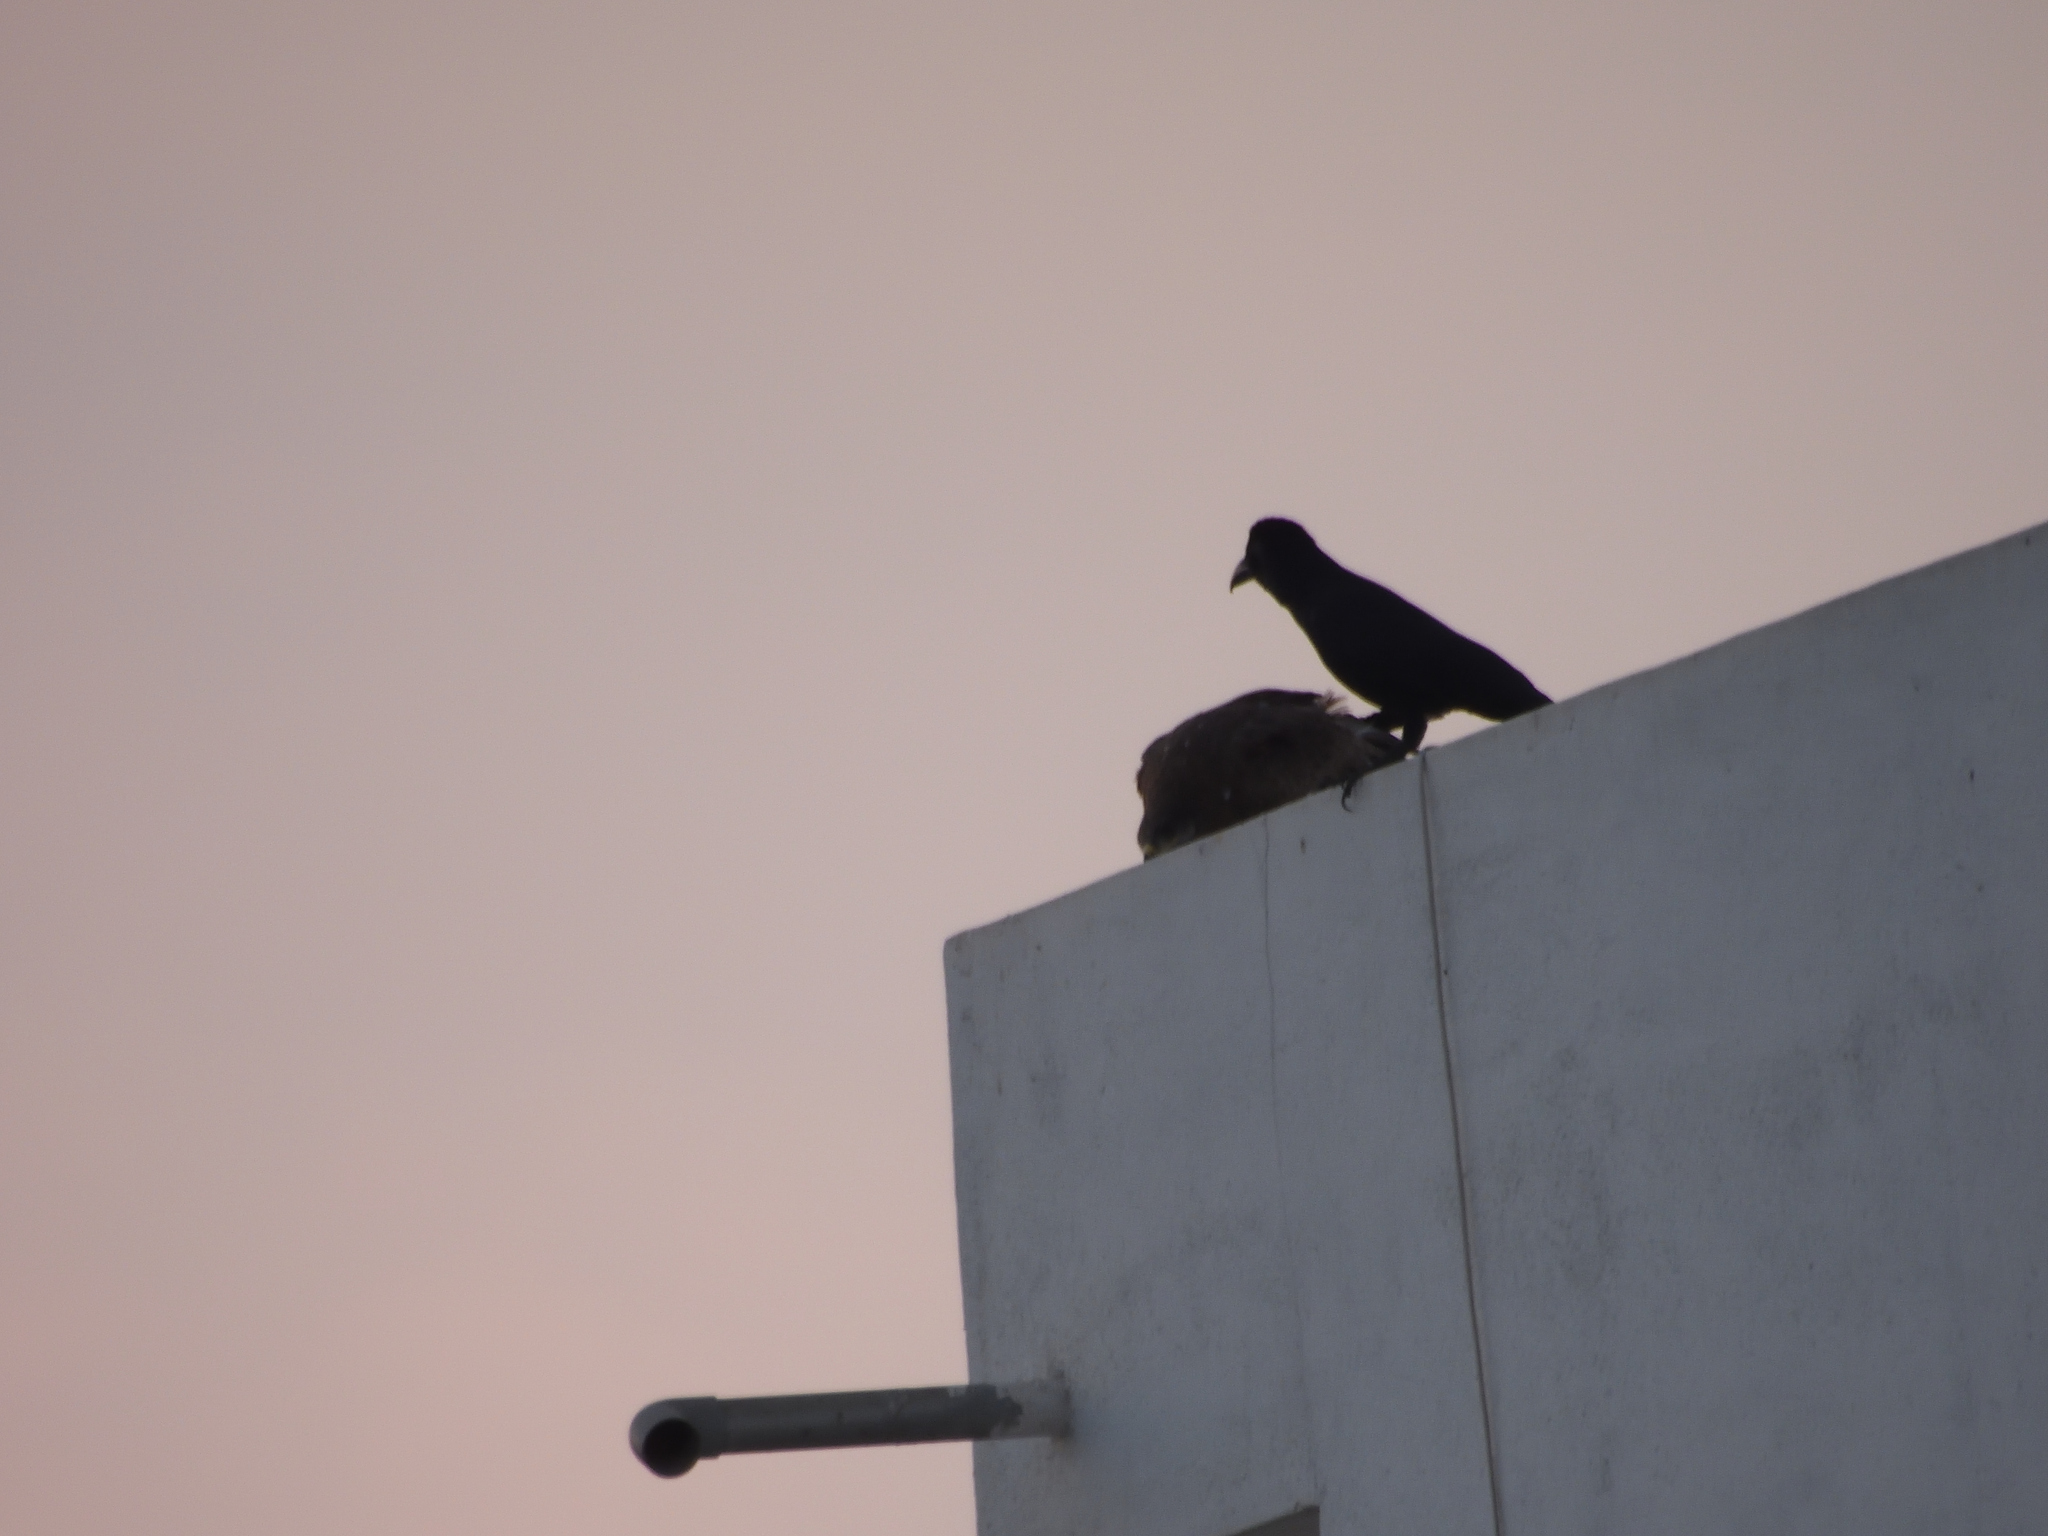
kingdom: Animalia
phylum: Chordata
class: Aves
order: Passeriformes
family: Corvidae
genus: Corvus
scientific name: Corvus macrorhynchos
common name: Large-billed crow
